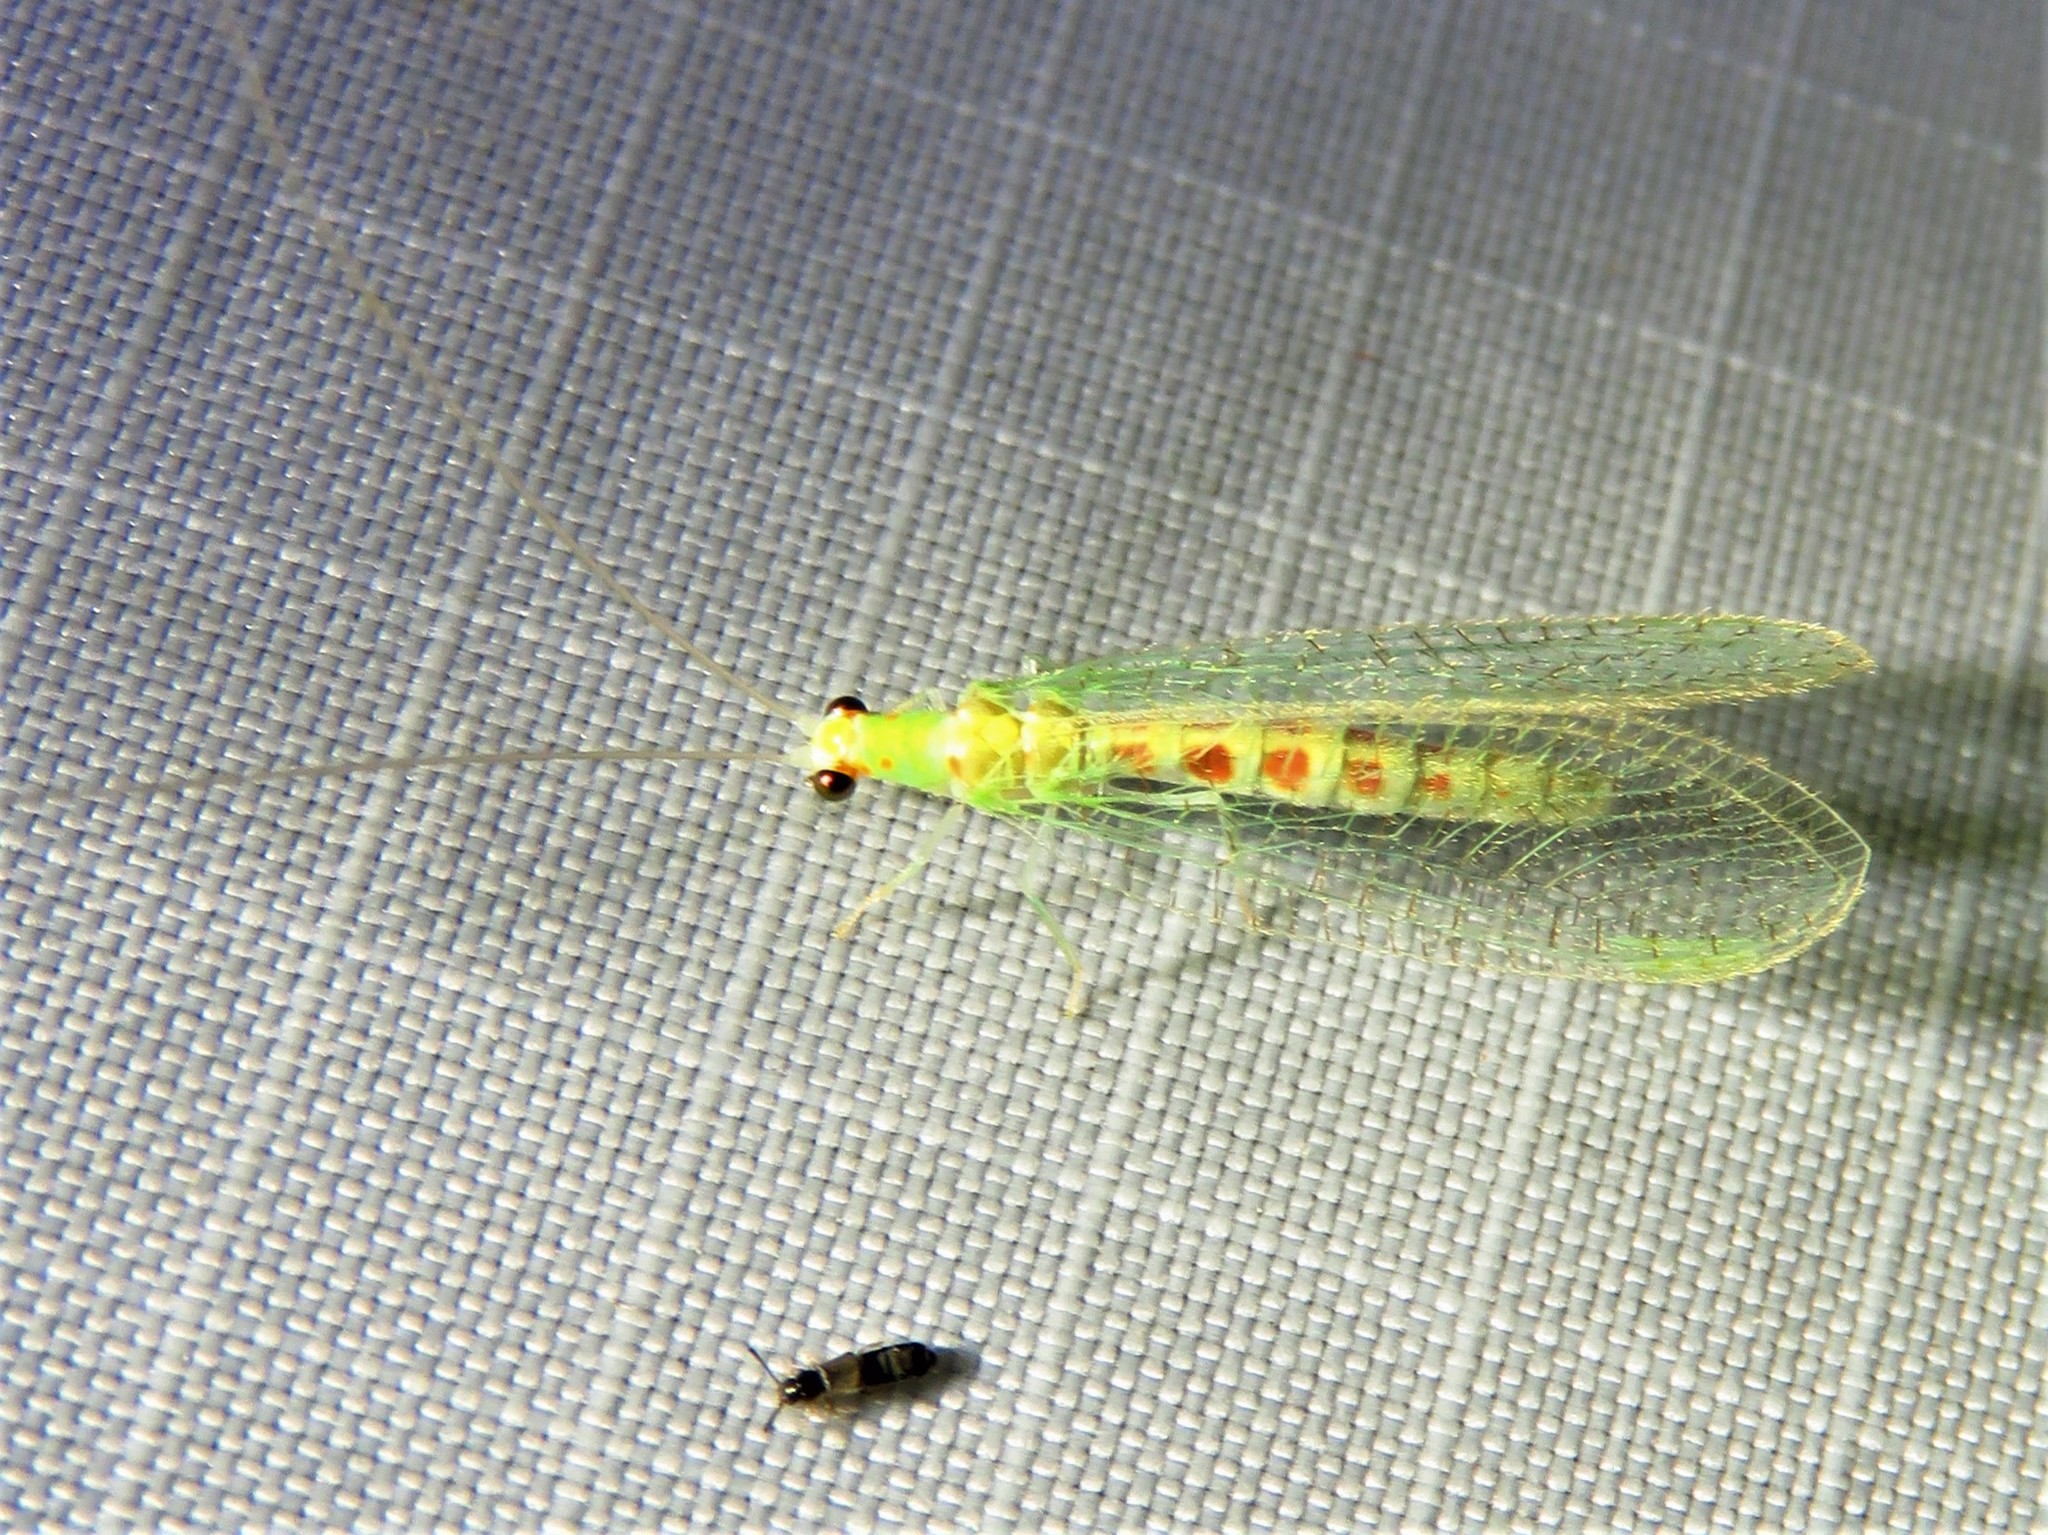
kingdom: Animalia
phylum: Arthropoda
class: Insecta
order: Neuroptera
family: Chrysopidae
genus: Chrysopa
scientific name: Chrysopa quadripunctata
